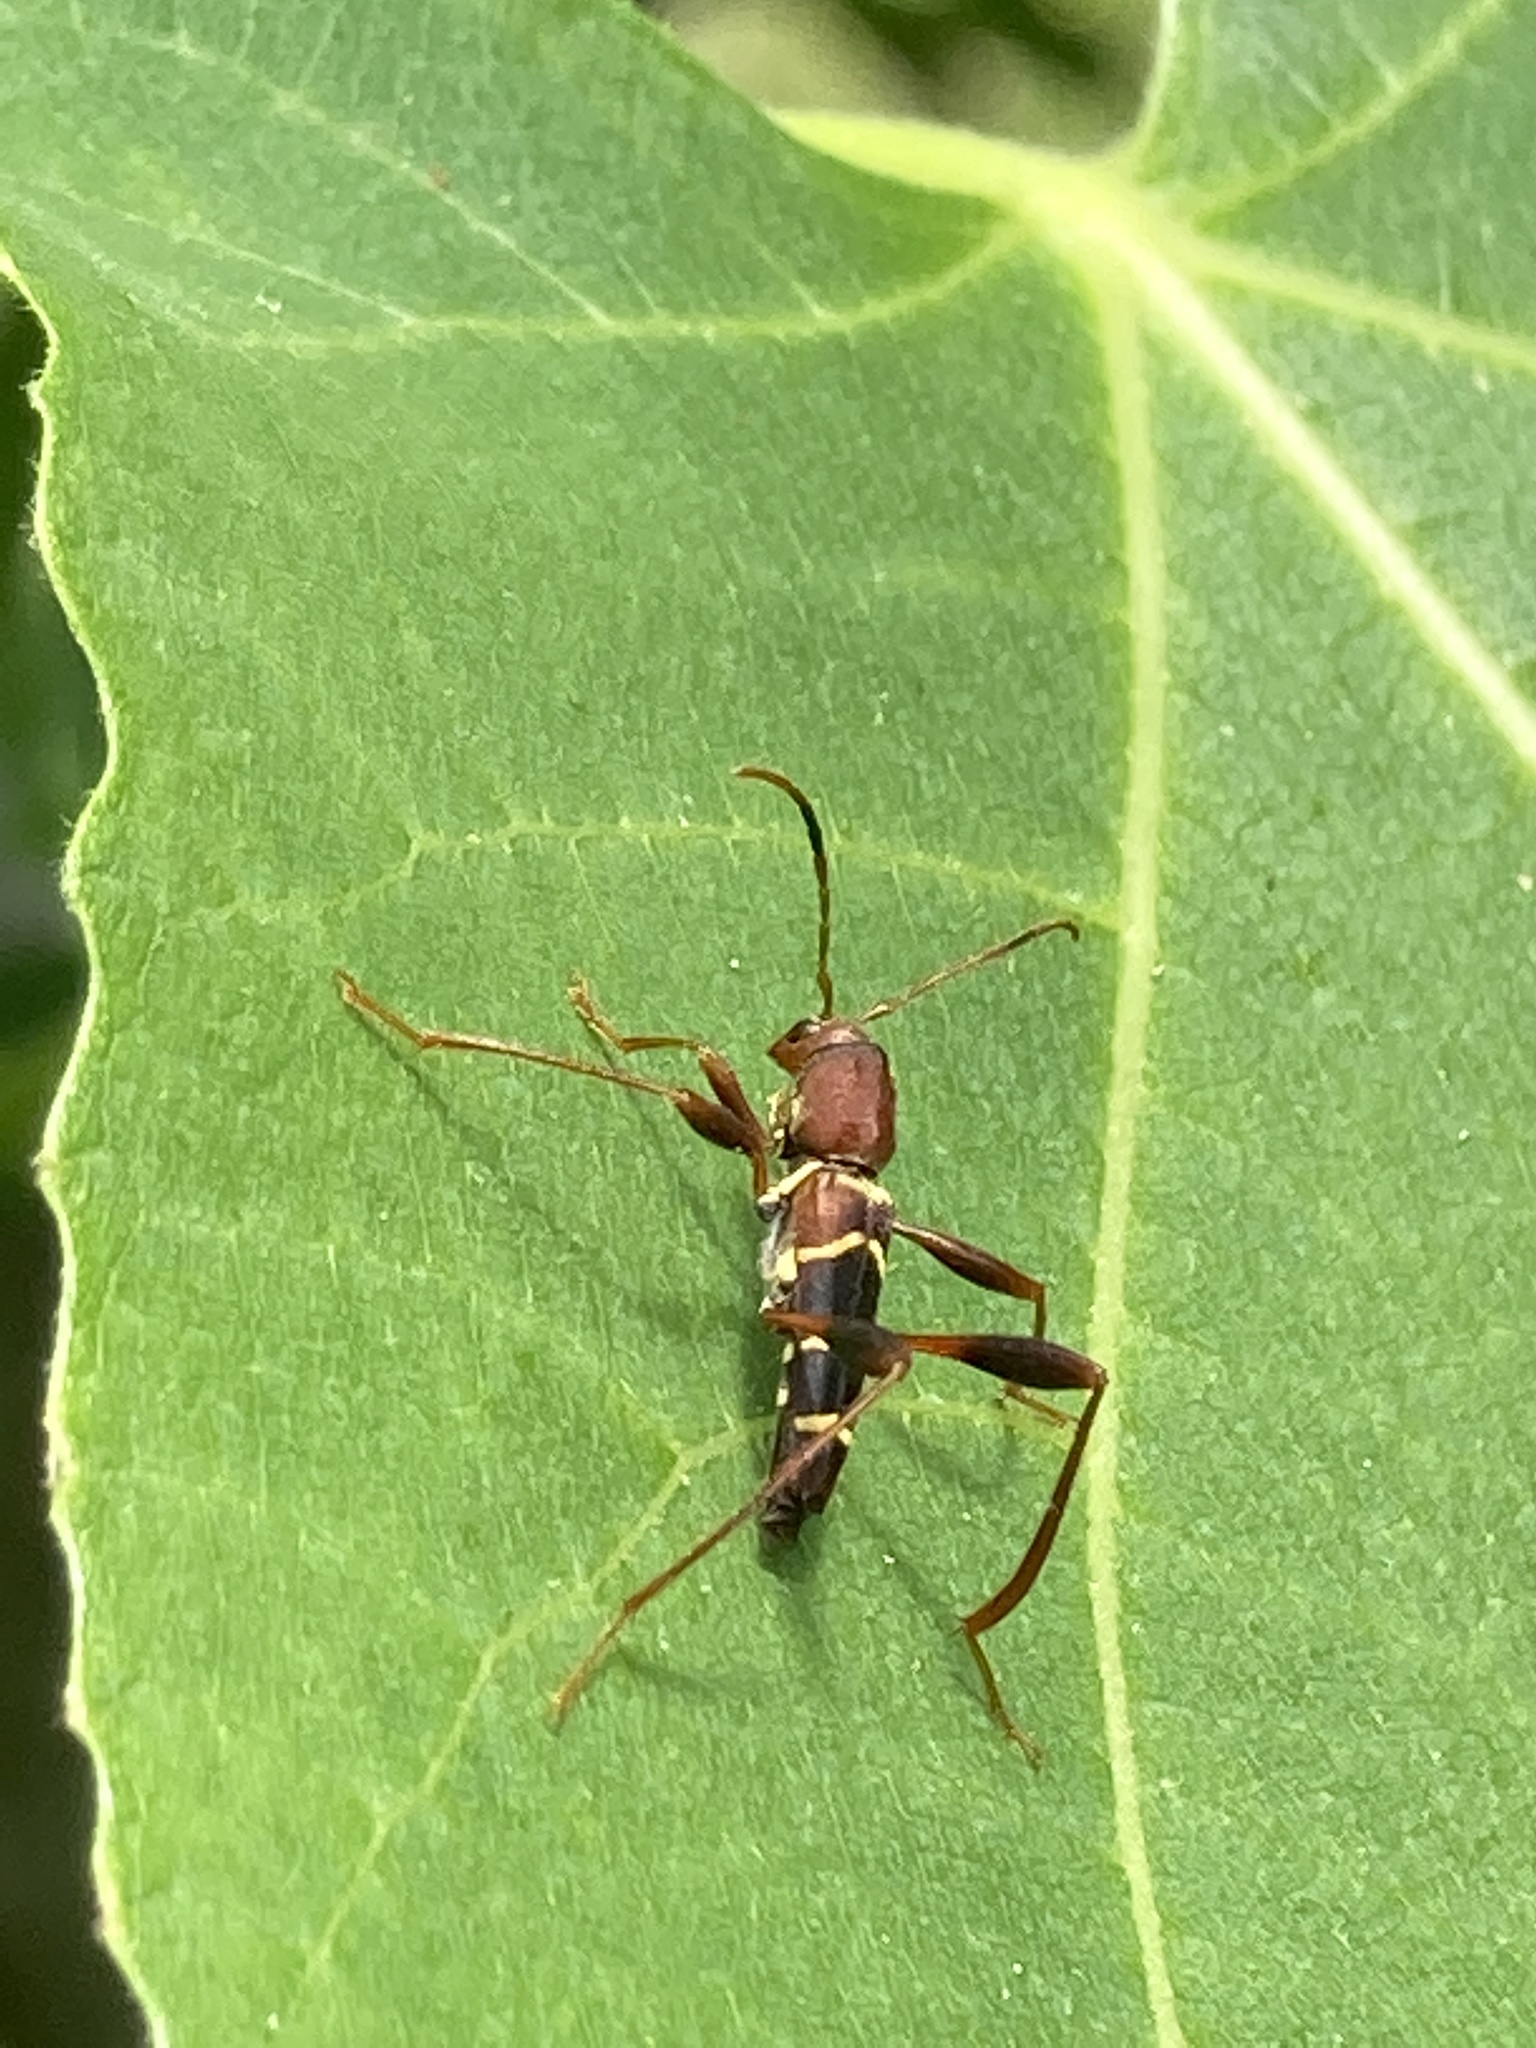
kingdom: Animalia
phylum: Arthropoda
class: Insecta
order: Coleoptera
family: Cerambycidae
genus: Neoclytus
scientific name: Neoclytus acuminatus
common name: Read-headed ash borer
